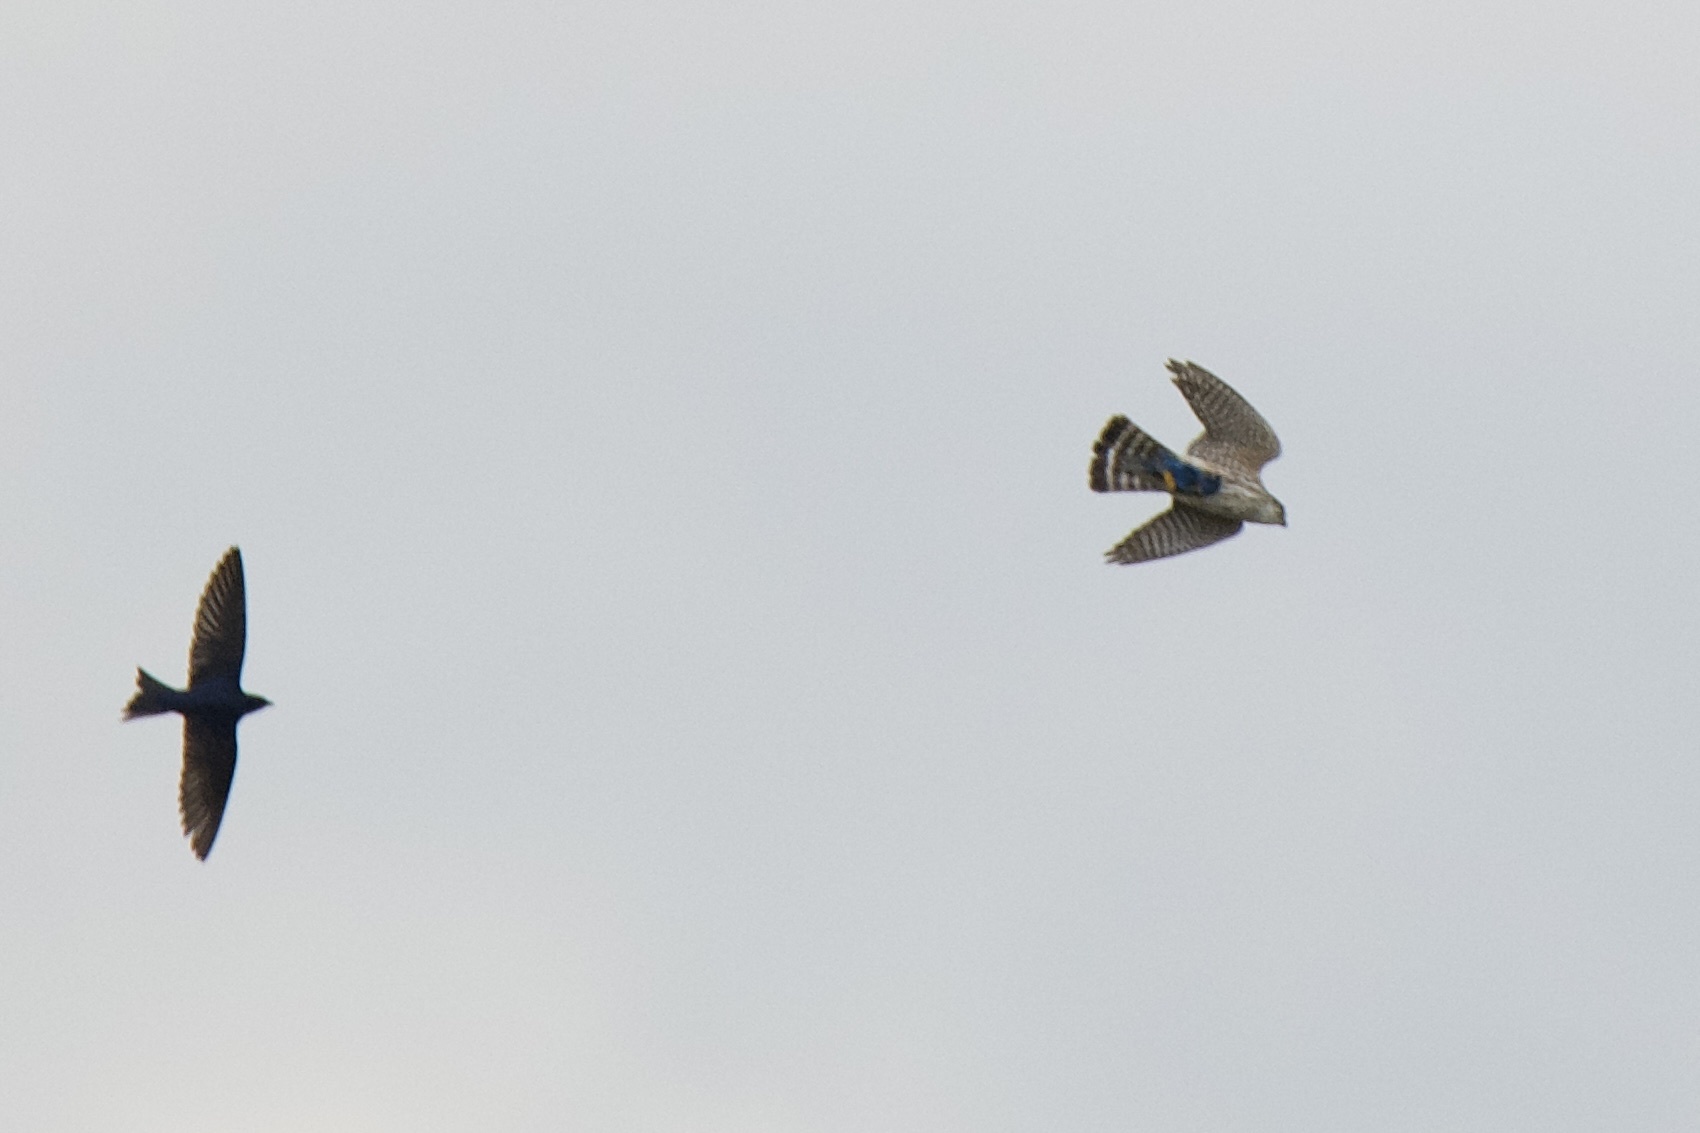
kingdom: Animalia
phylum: Chordata
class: Aves
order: Falconiformes
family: Falconidae
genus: Falco
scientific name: Falco columbarius
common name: Merlin
